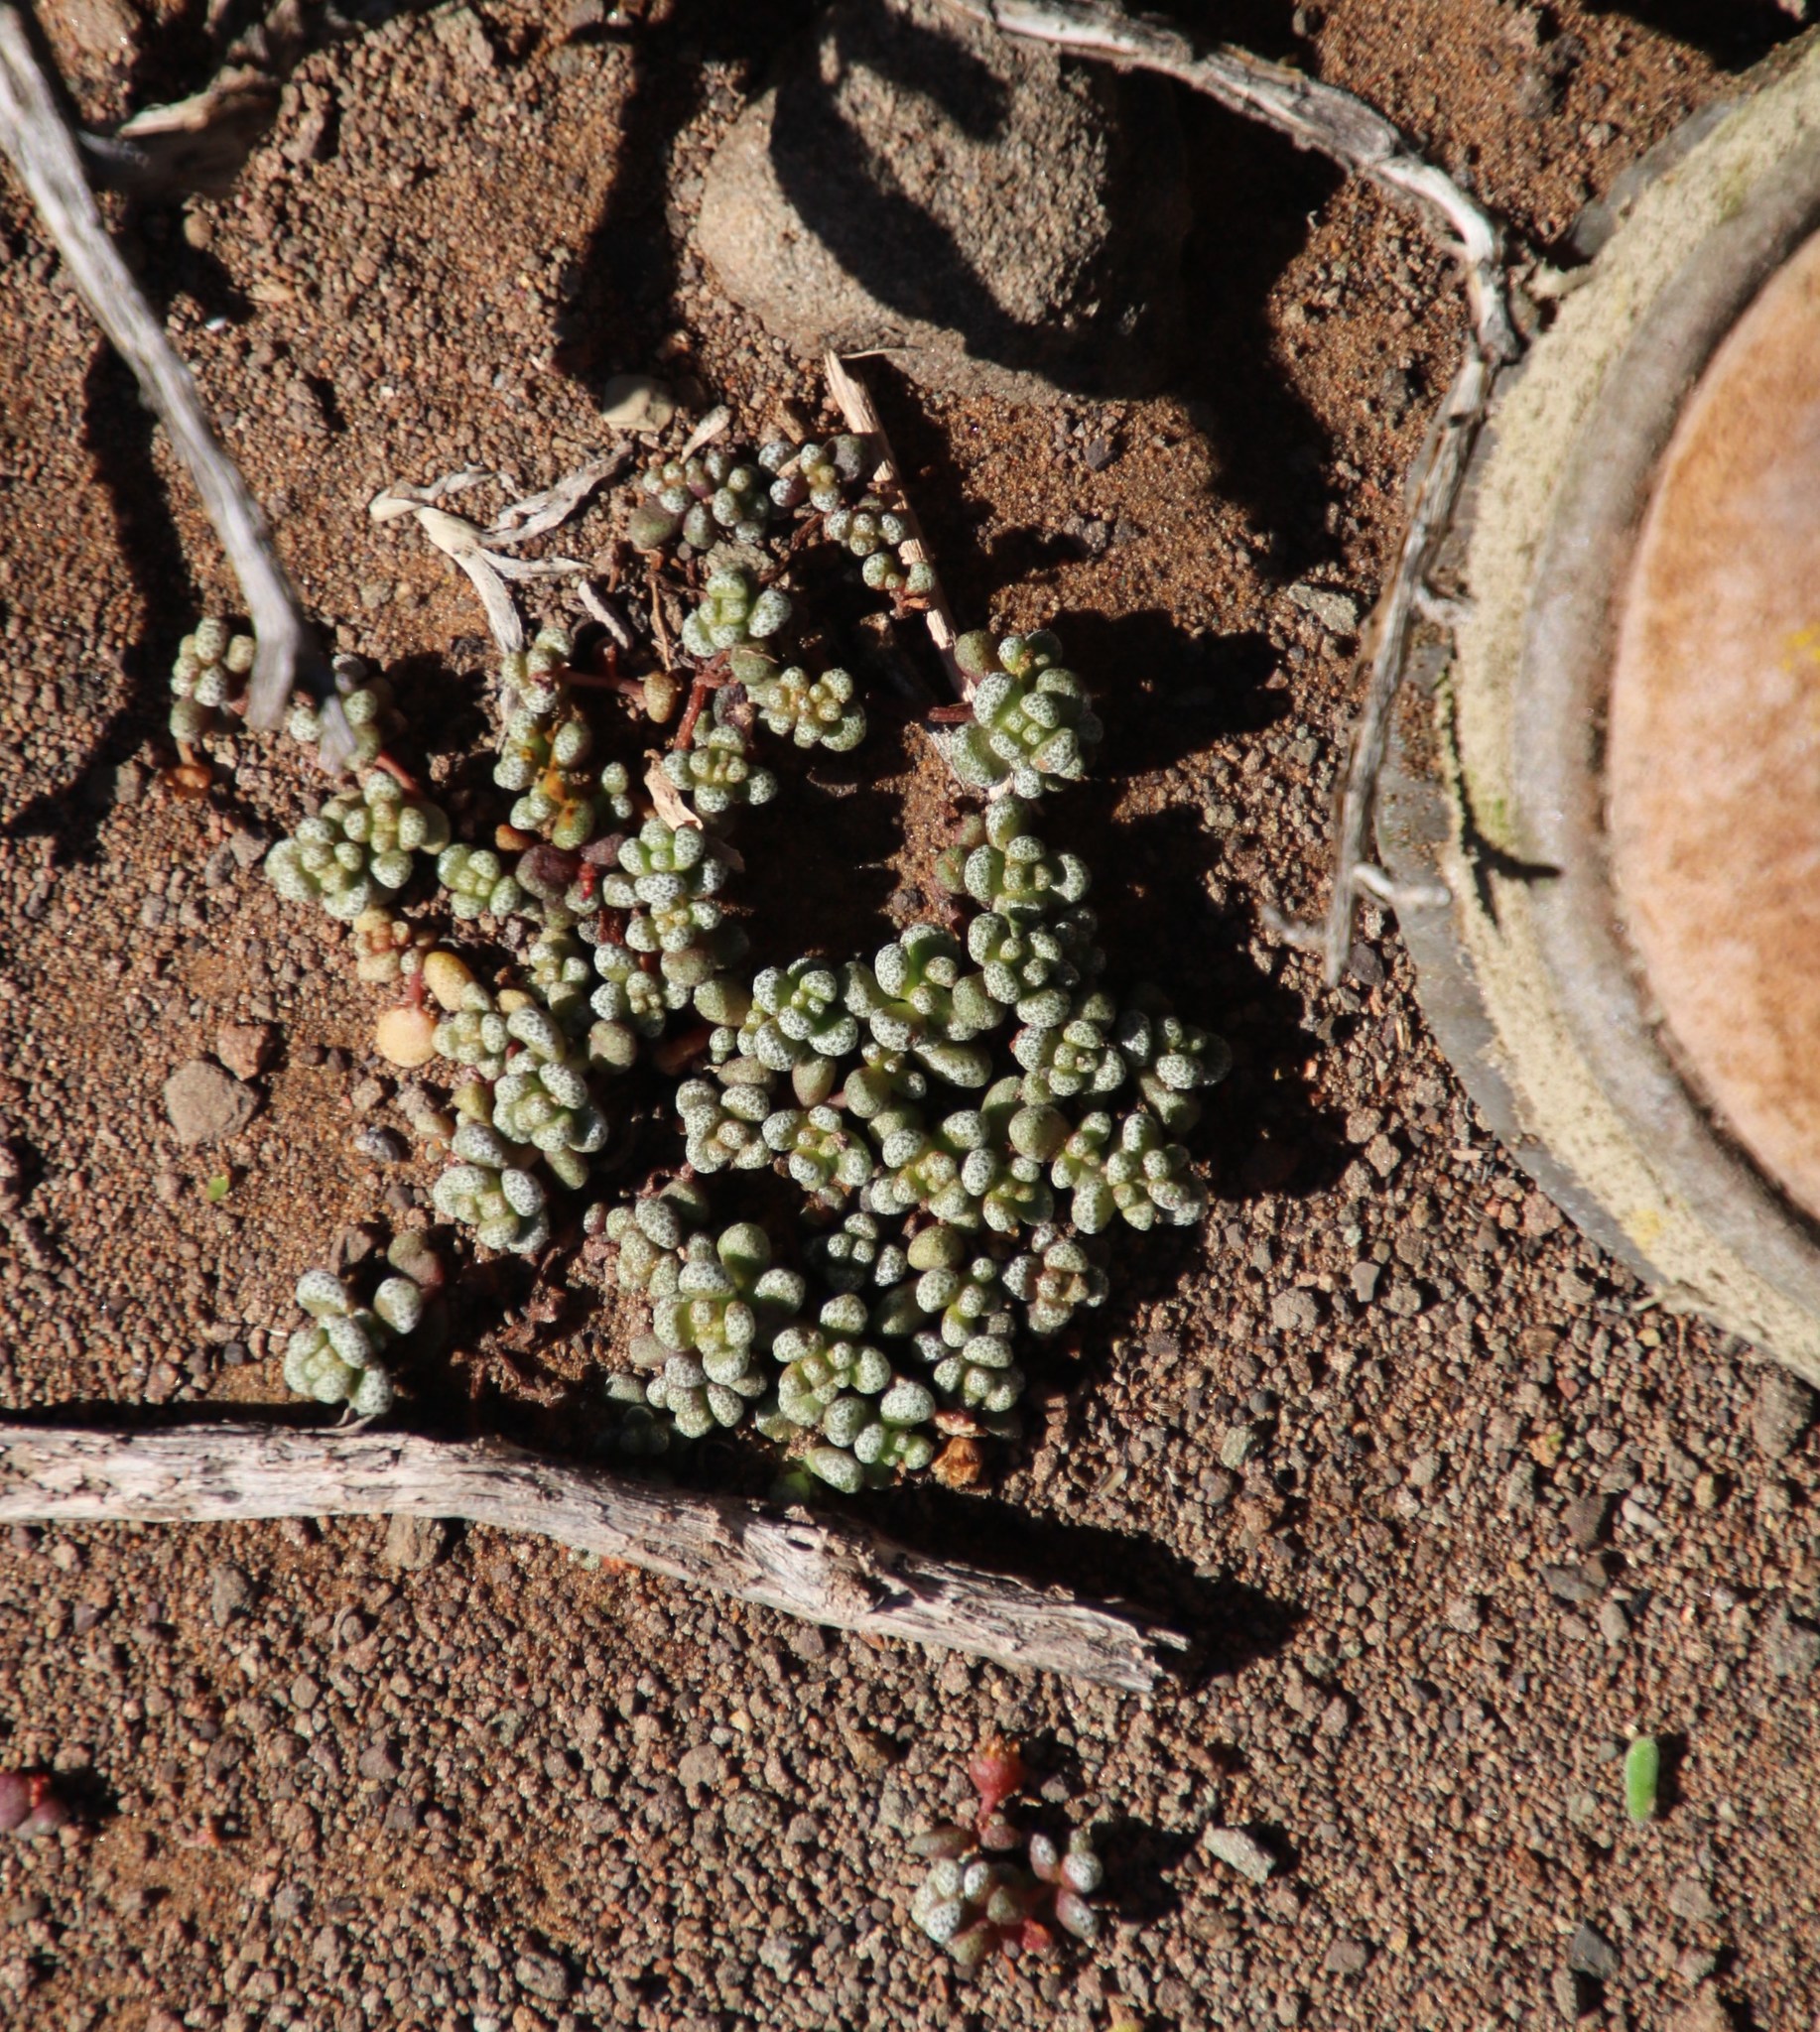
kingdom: Plantae
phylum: Tracheophyta
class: Magnoliopsida
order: Saxifragales
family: Crassulaceae
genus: Crassula
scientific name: Crassula corallina
